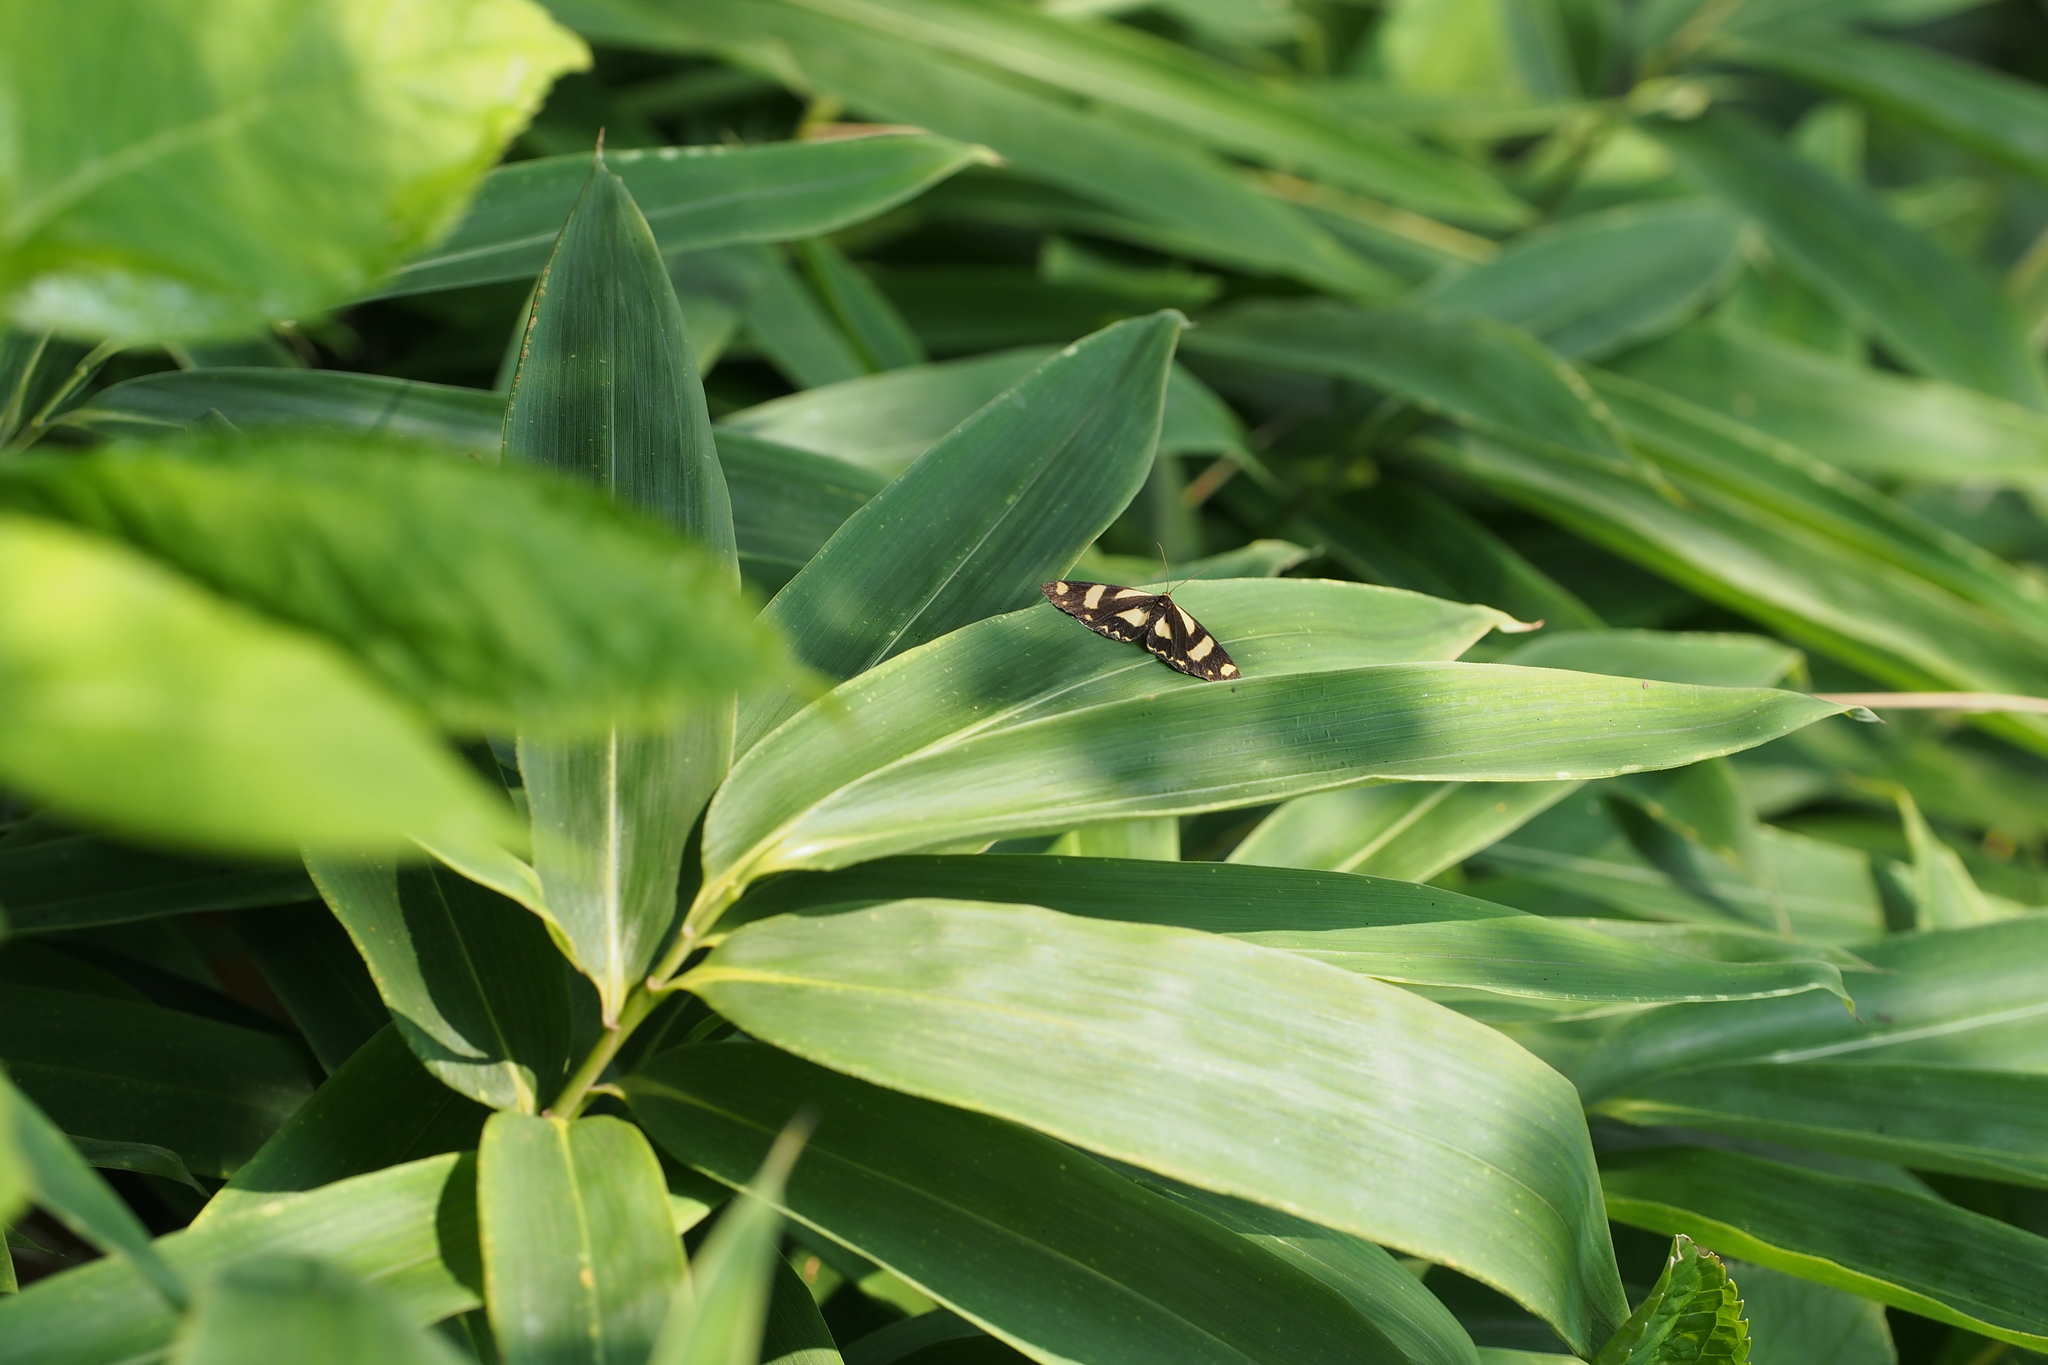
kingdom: Animalia
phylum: Arthropoda
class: Insecta
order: Lepidoptera
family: Epicopeiidae
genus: Psychostrophia
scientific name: Psychostrophia melanargia
